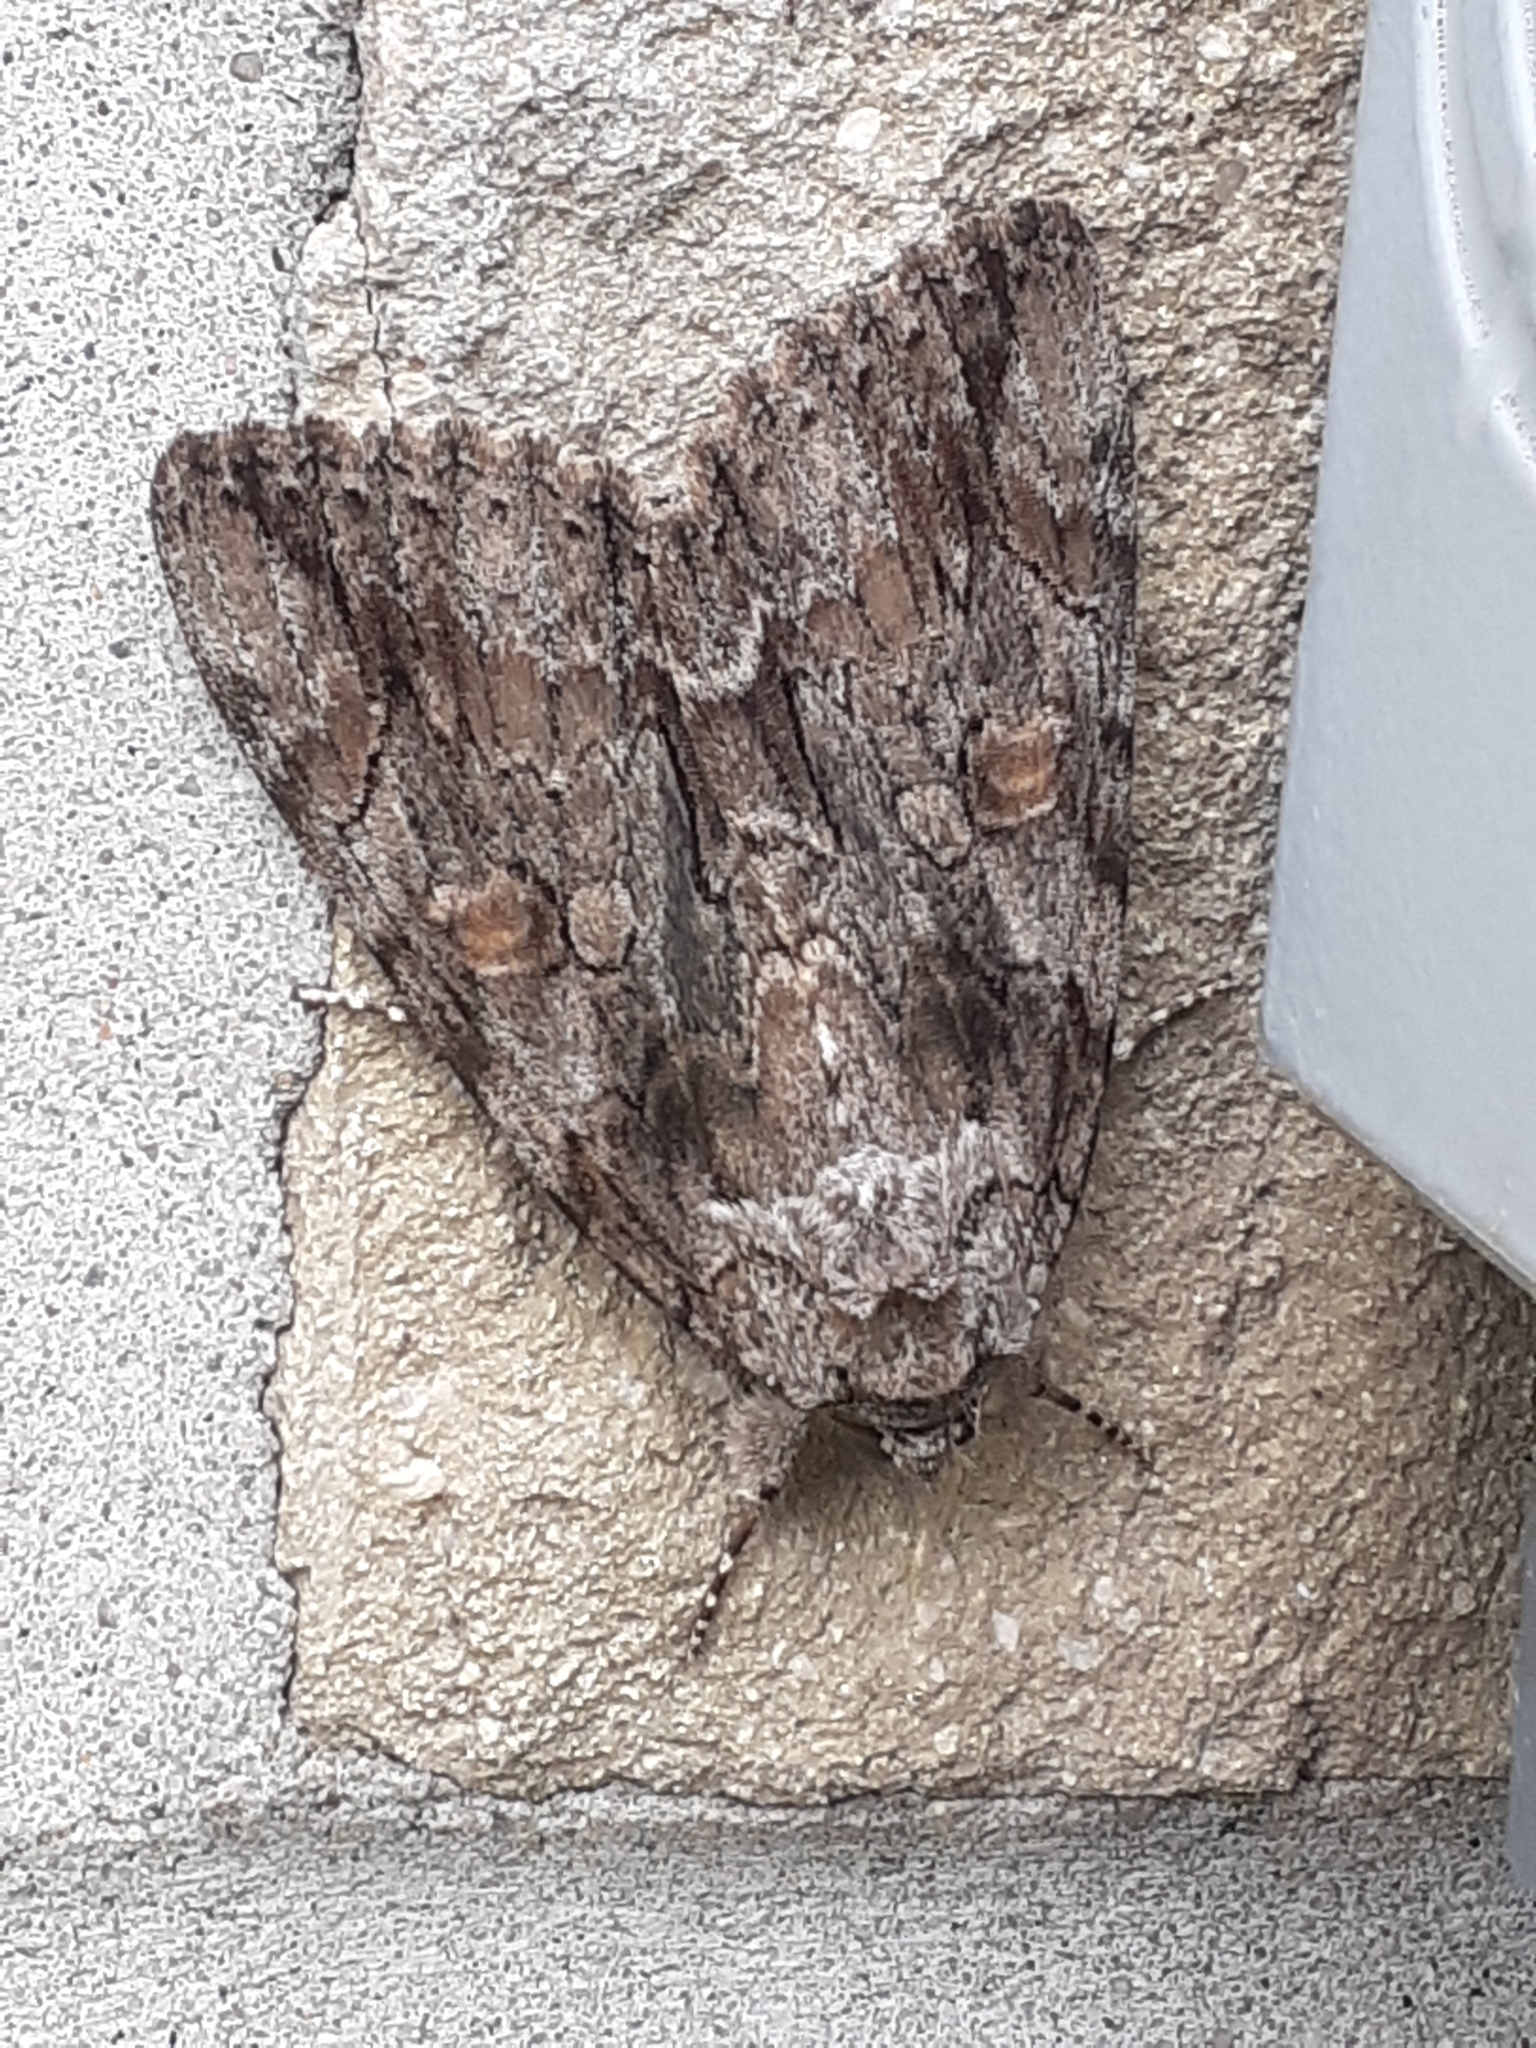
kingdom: Animalia
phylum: Arthropoda
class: Insecta
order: Lepidoptera
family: Erebidae
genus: Catocala
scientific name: Catocala neogama
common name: Bride underwing
